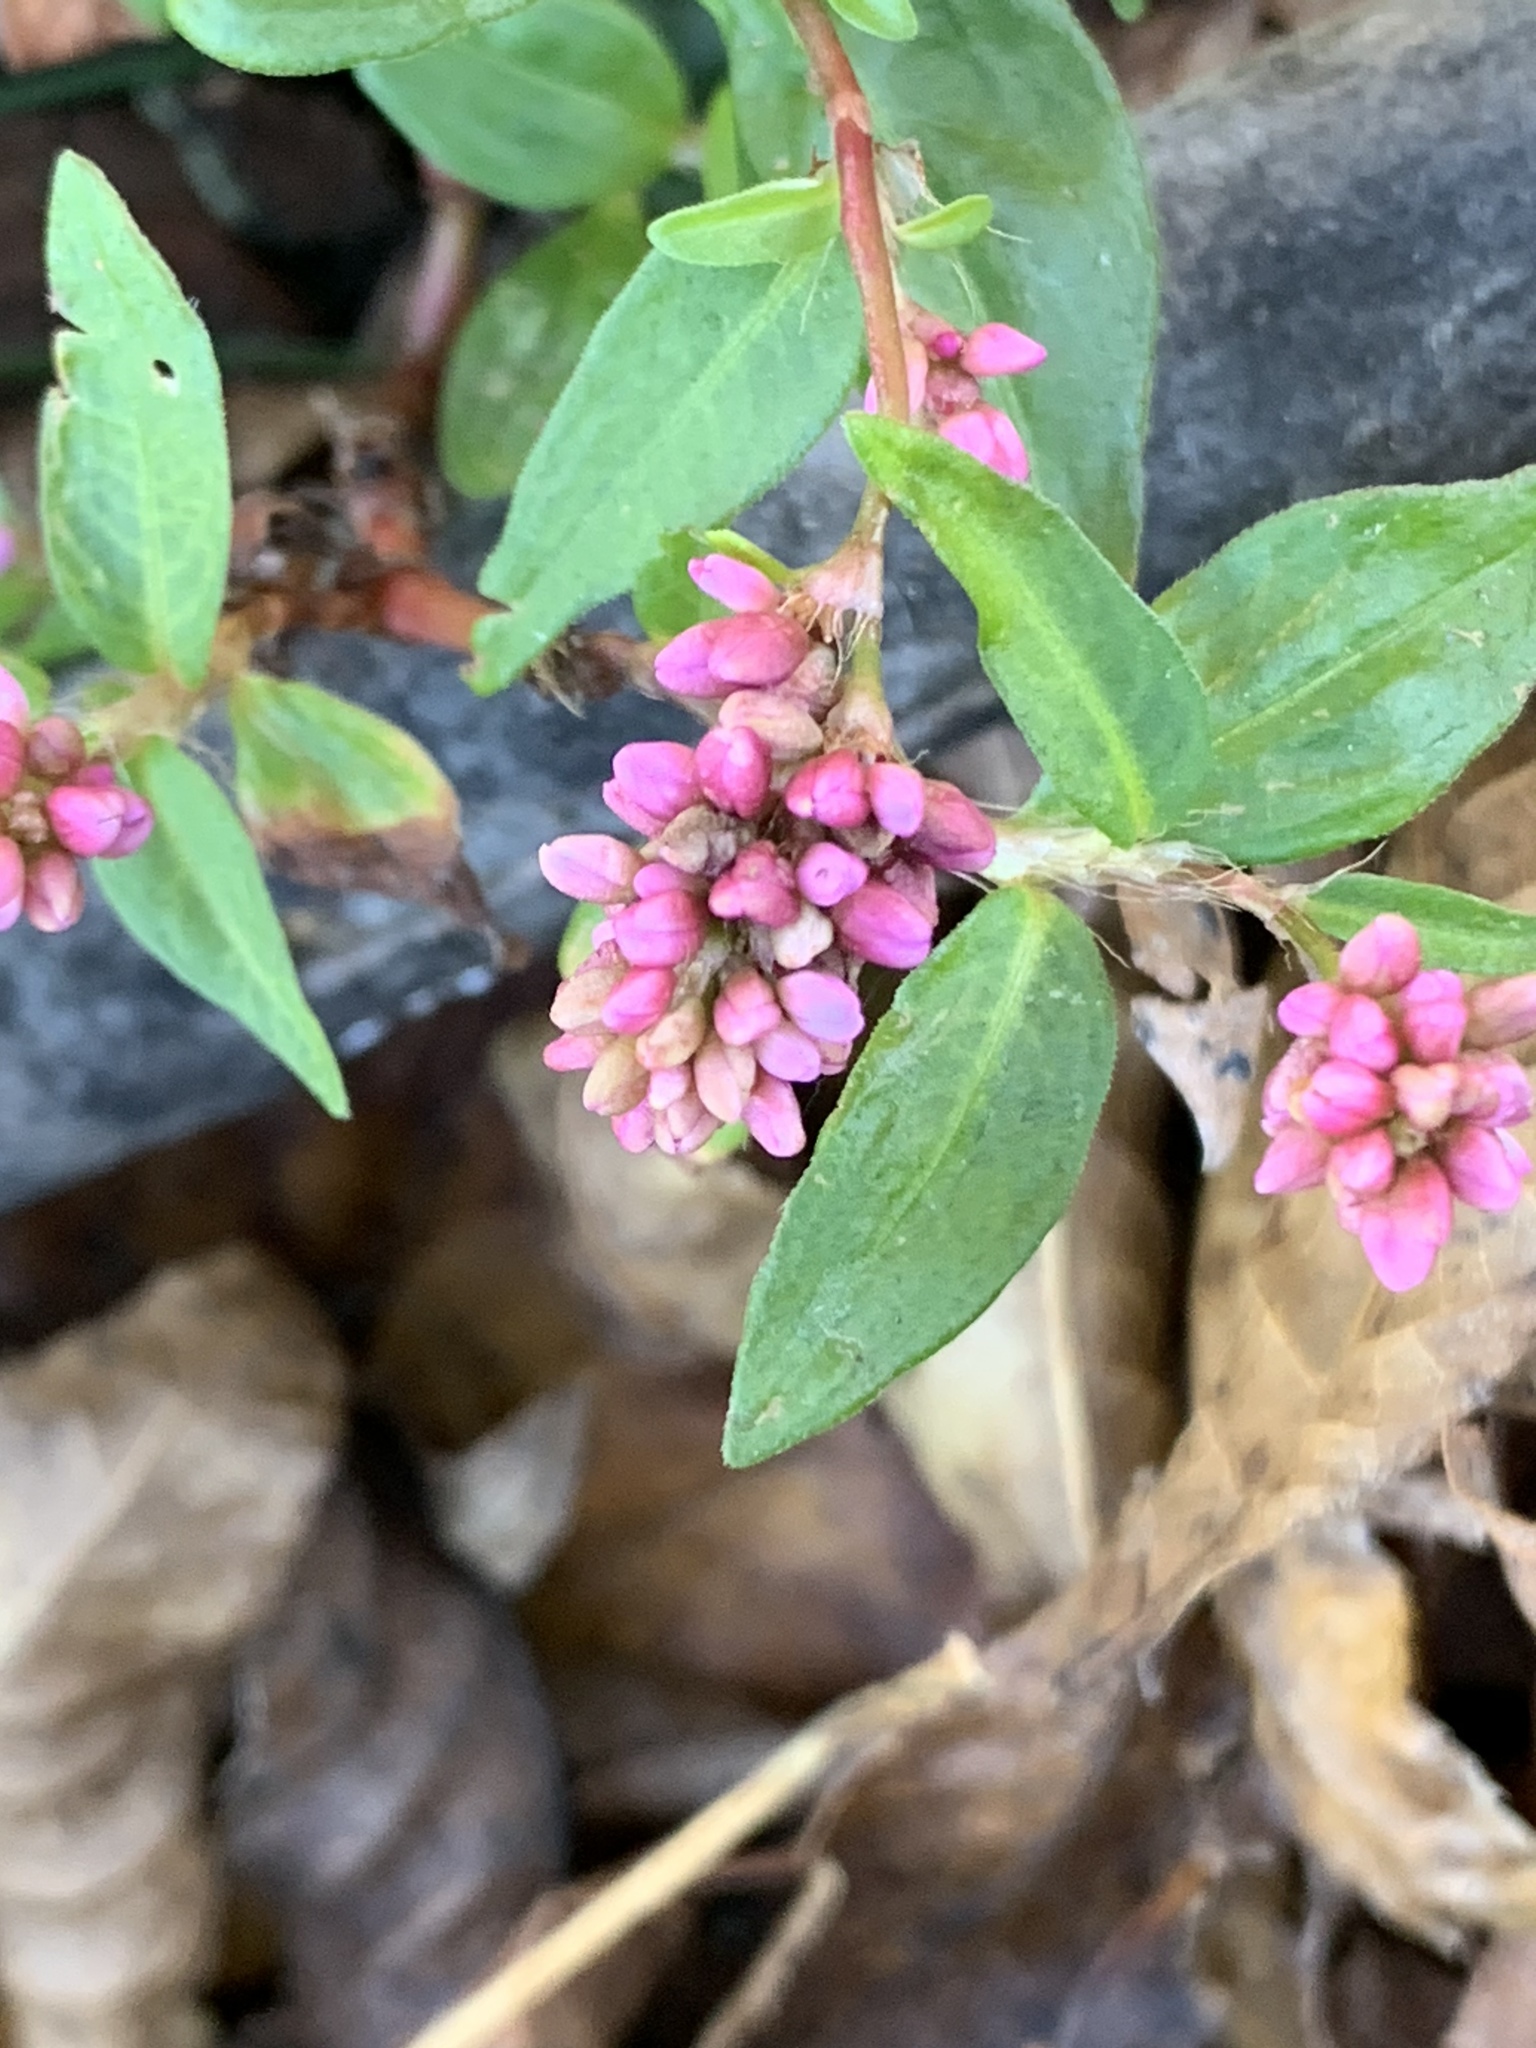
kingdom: Plantae
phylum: Tracheophyta
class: Magnoliopsida
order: Caryophyllales
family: Polygonaceae
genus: Persicaria
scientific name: Persicaria longiseta
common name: Bristly lady's-thumb
